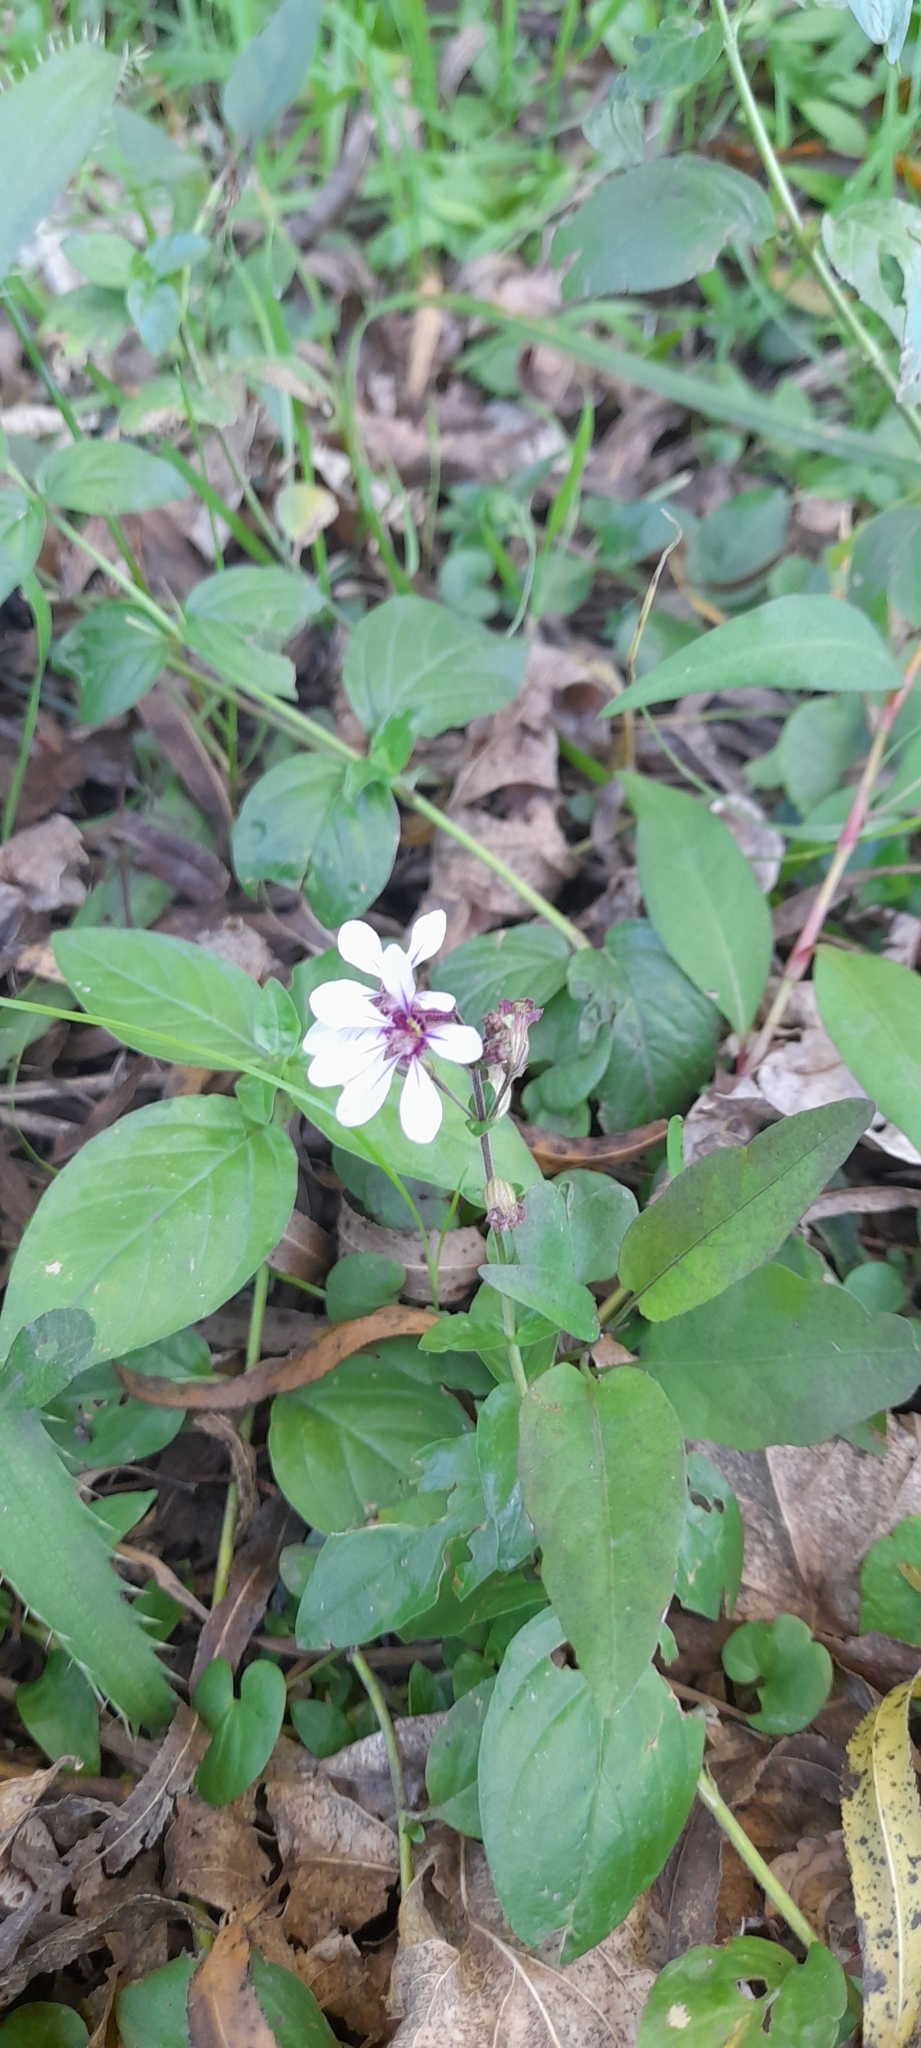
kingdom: Plantae
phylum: Tracheophyta
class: Magnoliopsida
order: Myrtales
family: Lythraceae
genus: Cuphea
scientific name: Cuphea racemosa
